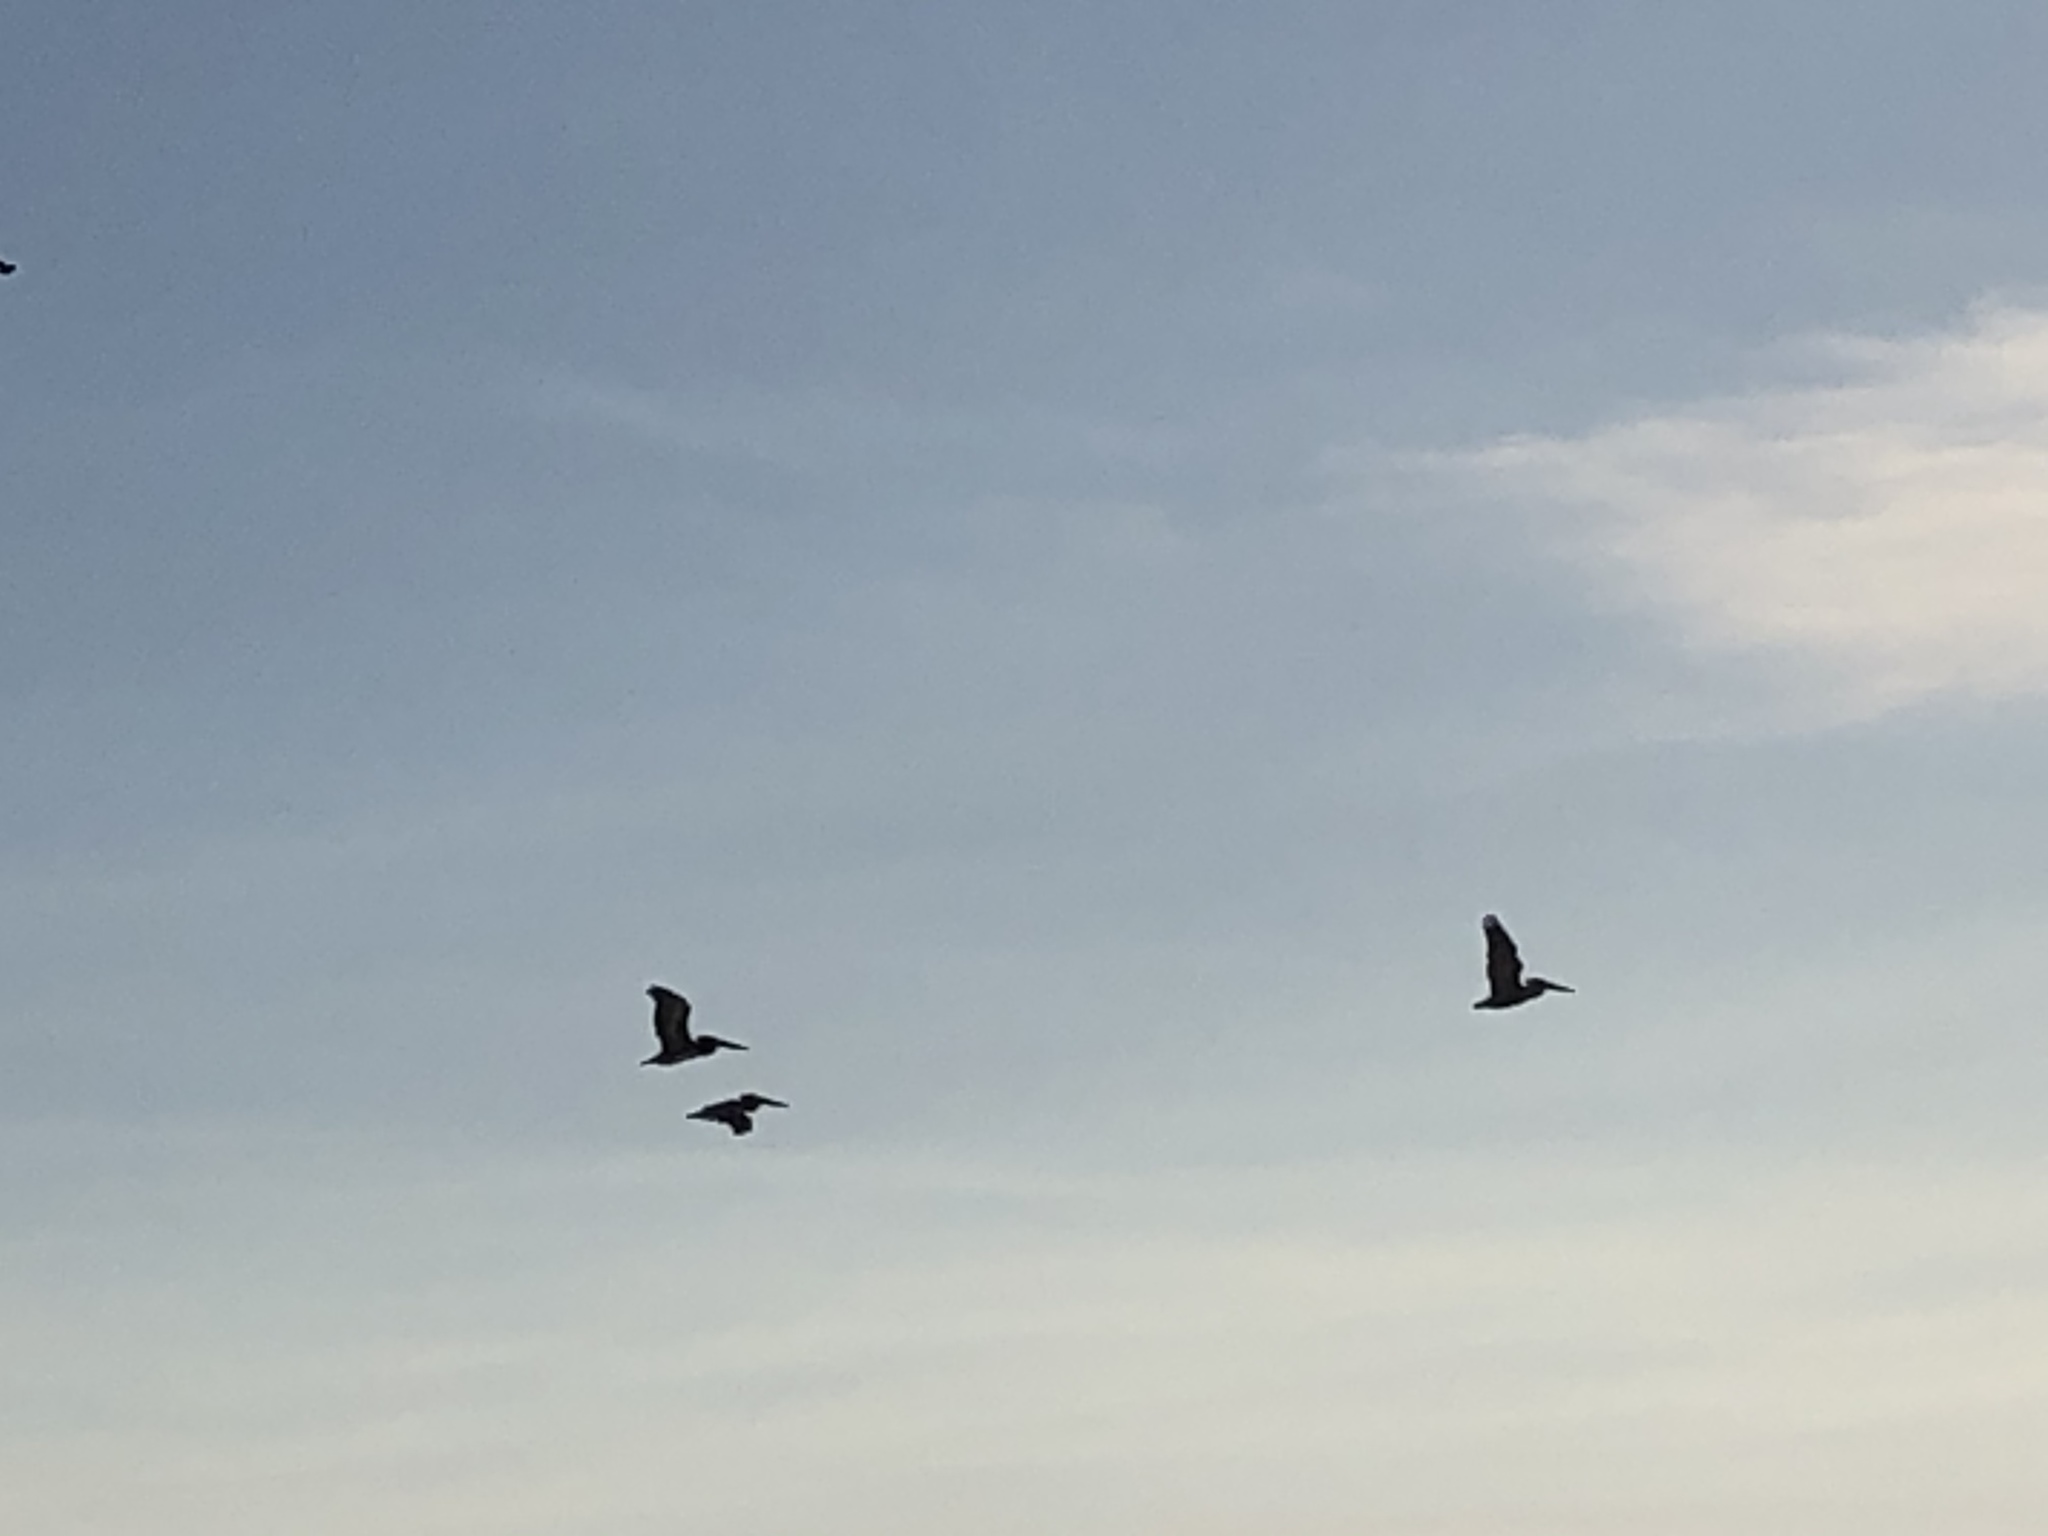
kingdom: Animalia
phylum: Chordata
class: Aves
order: Pelecaniformes
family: Pelecanidae
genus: Pelecanus
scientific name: Pelecanus occidentalis
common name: Brown pelican
